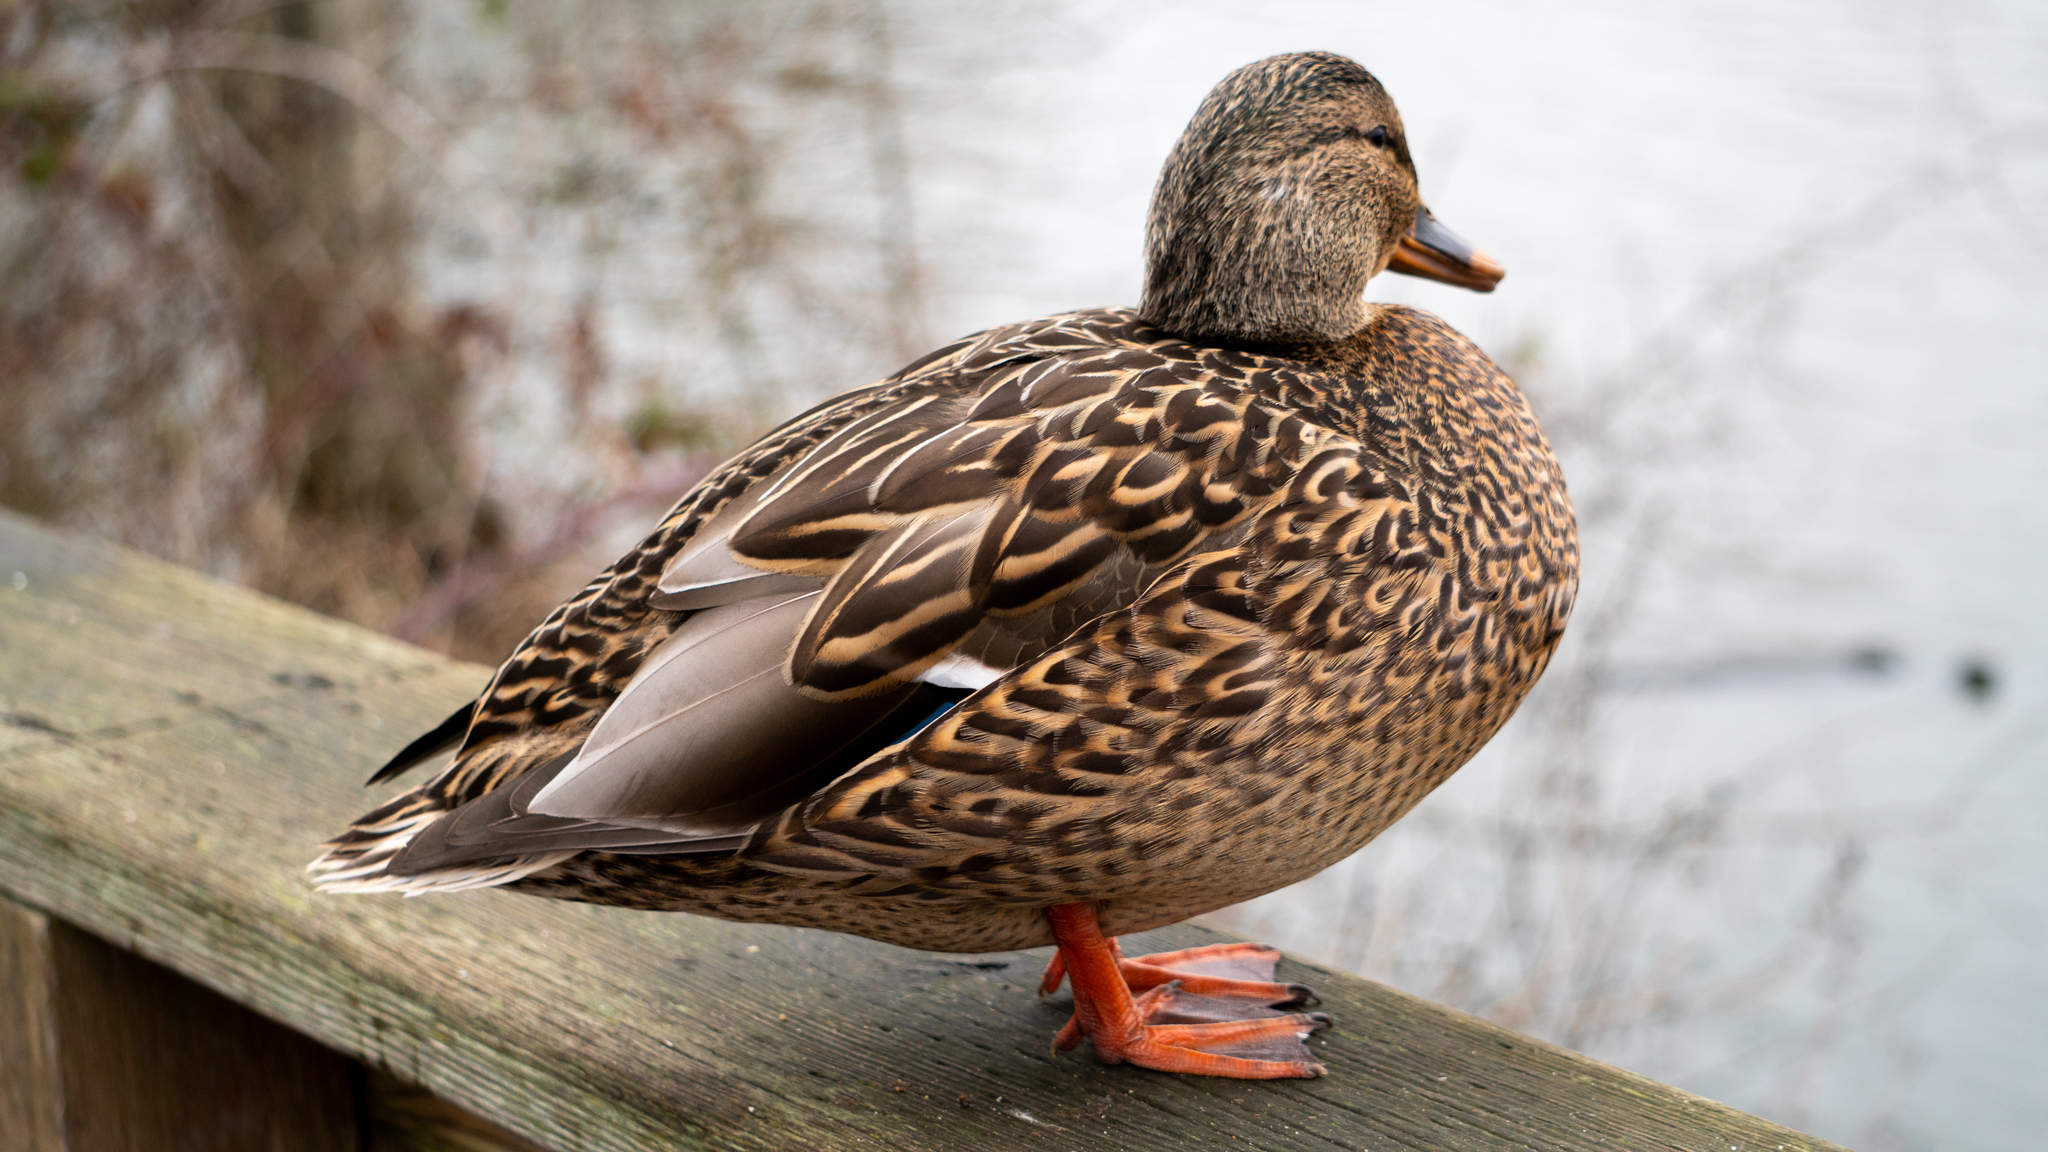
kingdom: Animalia
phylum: Chordata
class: Aves
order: Anseriformes
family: Anatidae
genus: Anas
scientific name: Anas platyrhynchos
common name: Mallard
